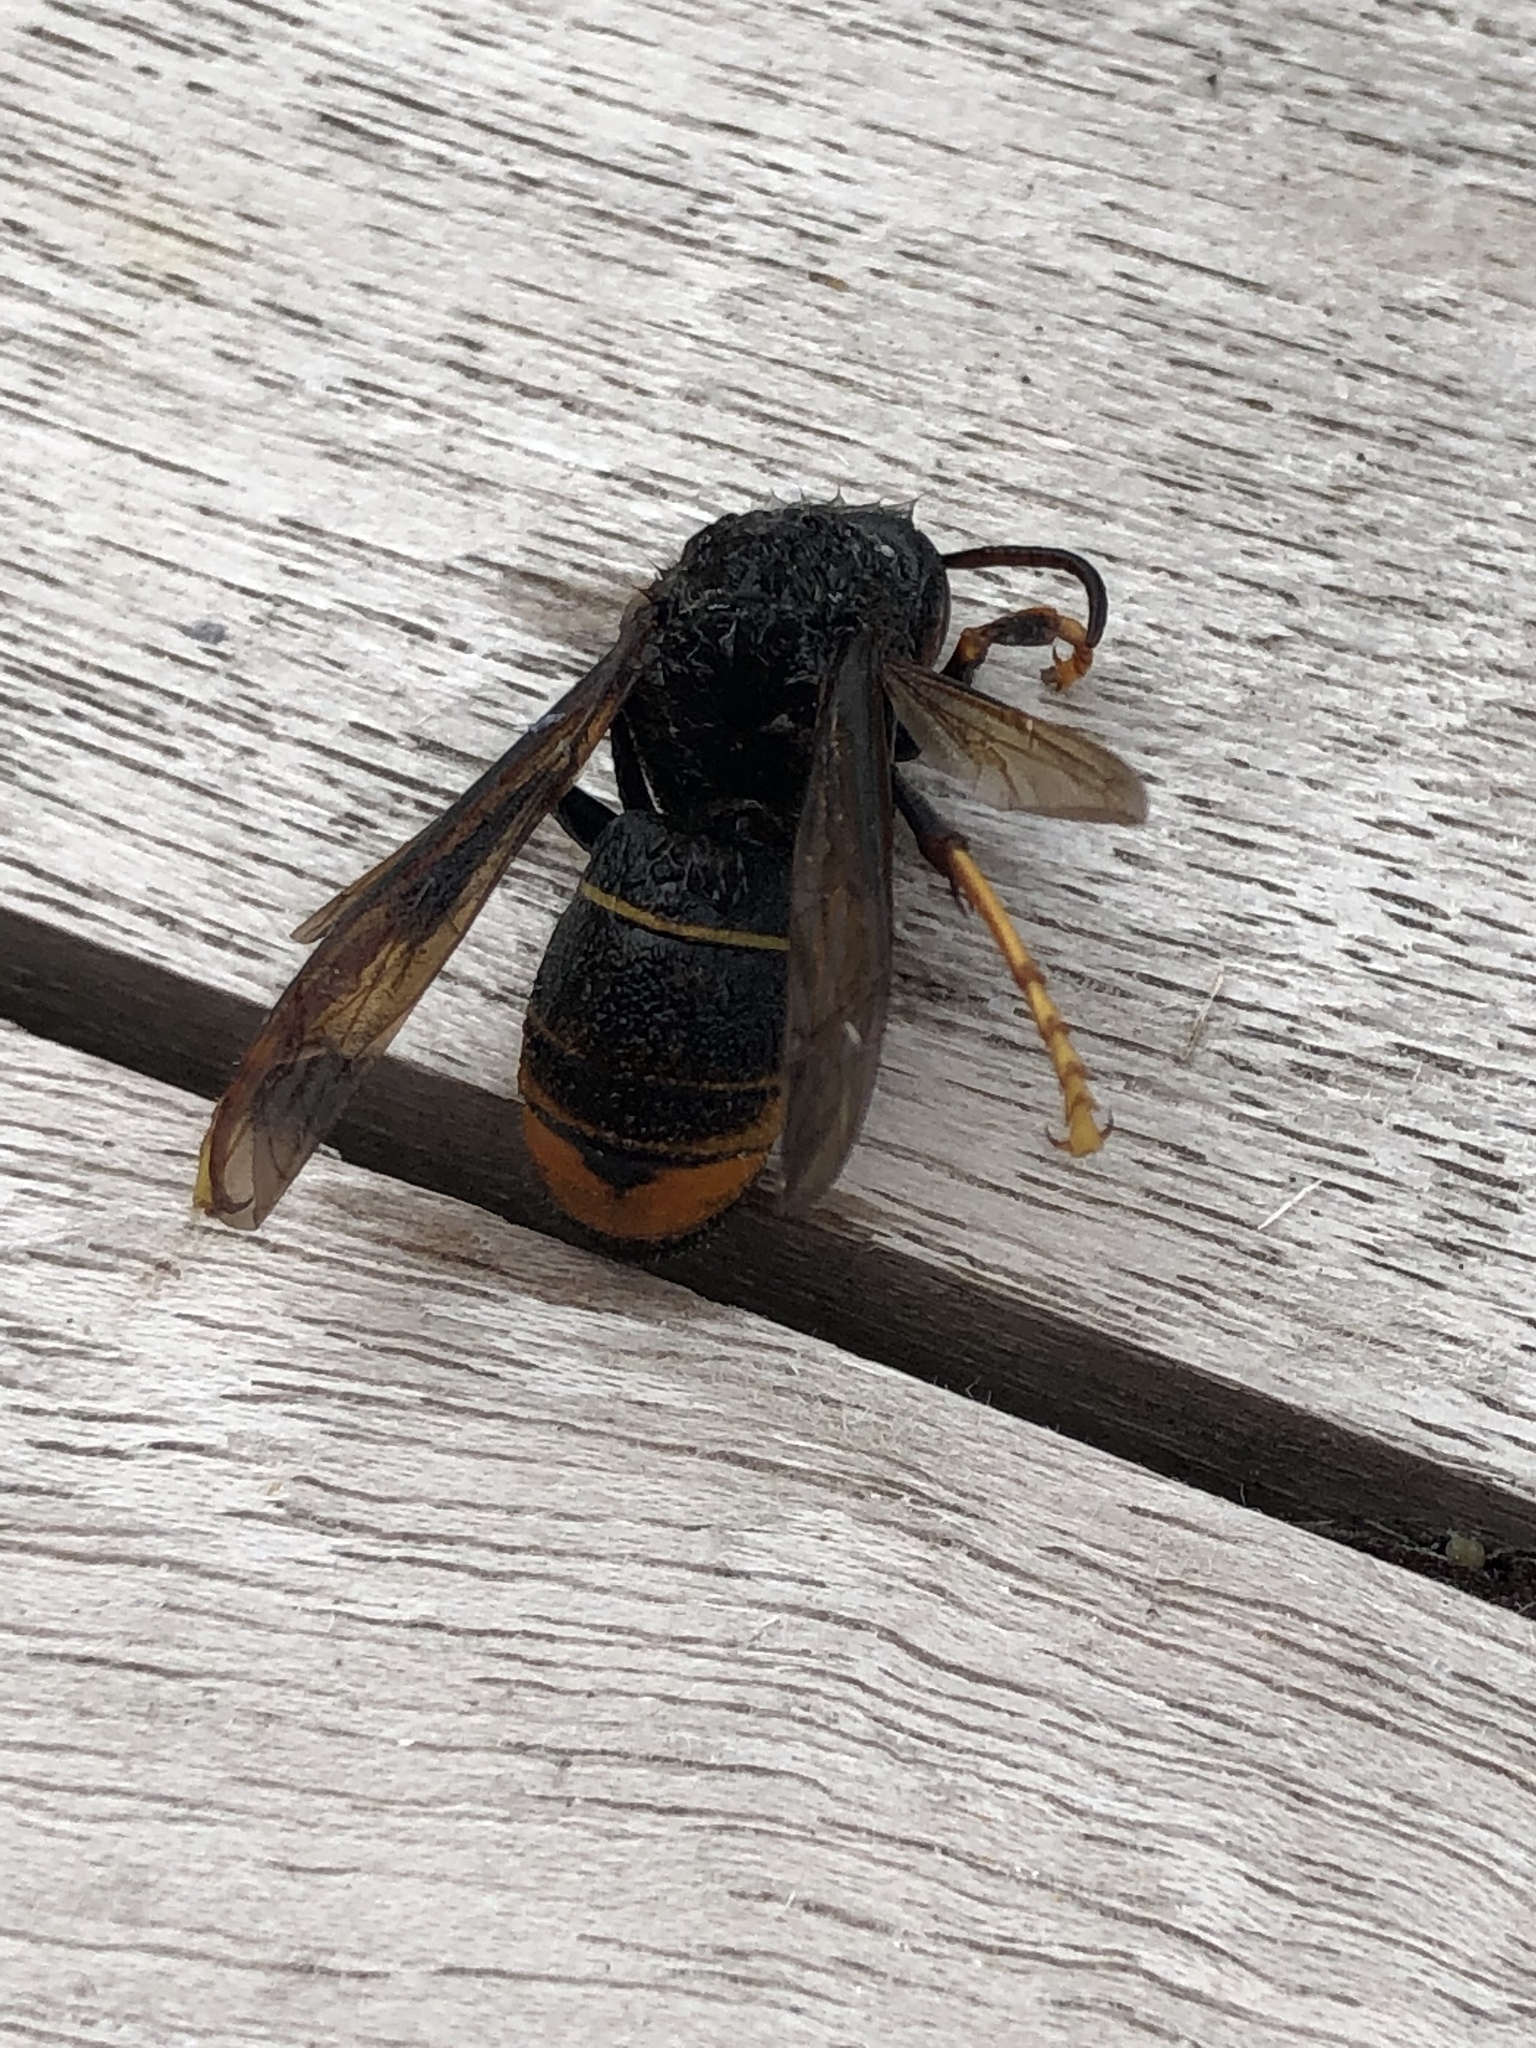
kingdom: Animalia
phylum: Arthropoda
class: Insecta
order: Hymenoptera
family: Vespidae
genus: Vespa
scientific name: Vespa velutina
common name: Asian hornet
